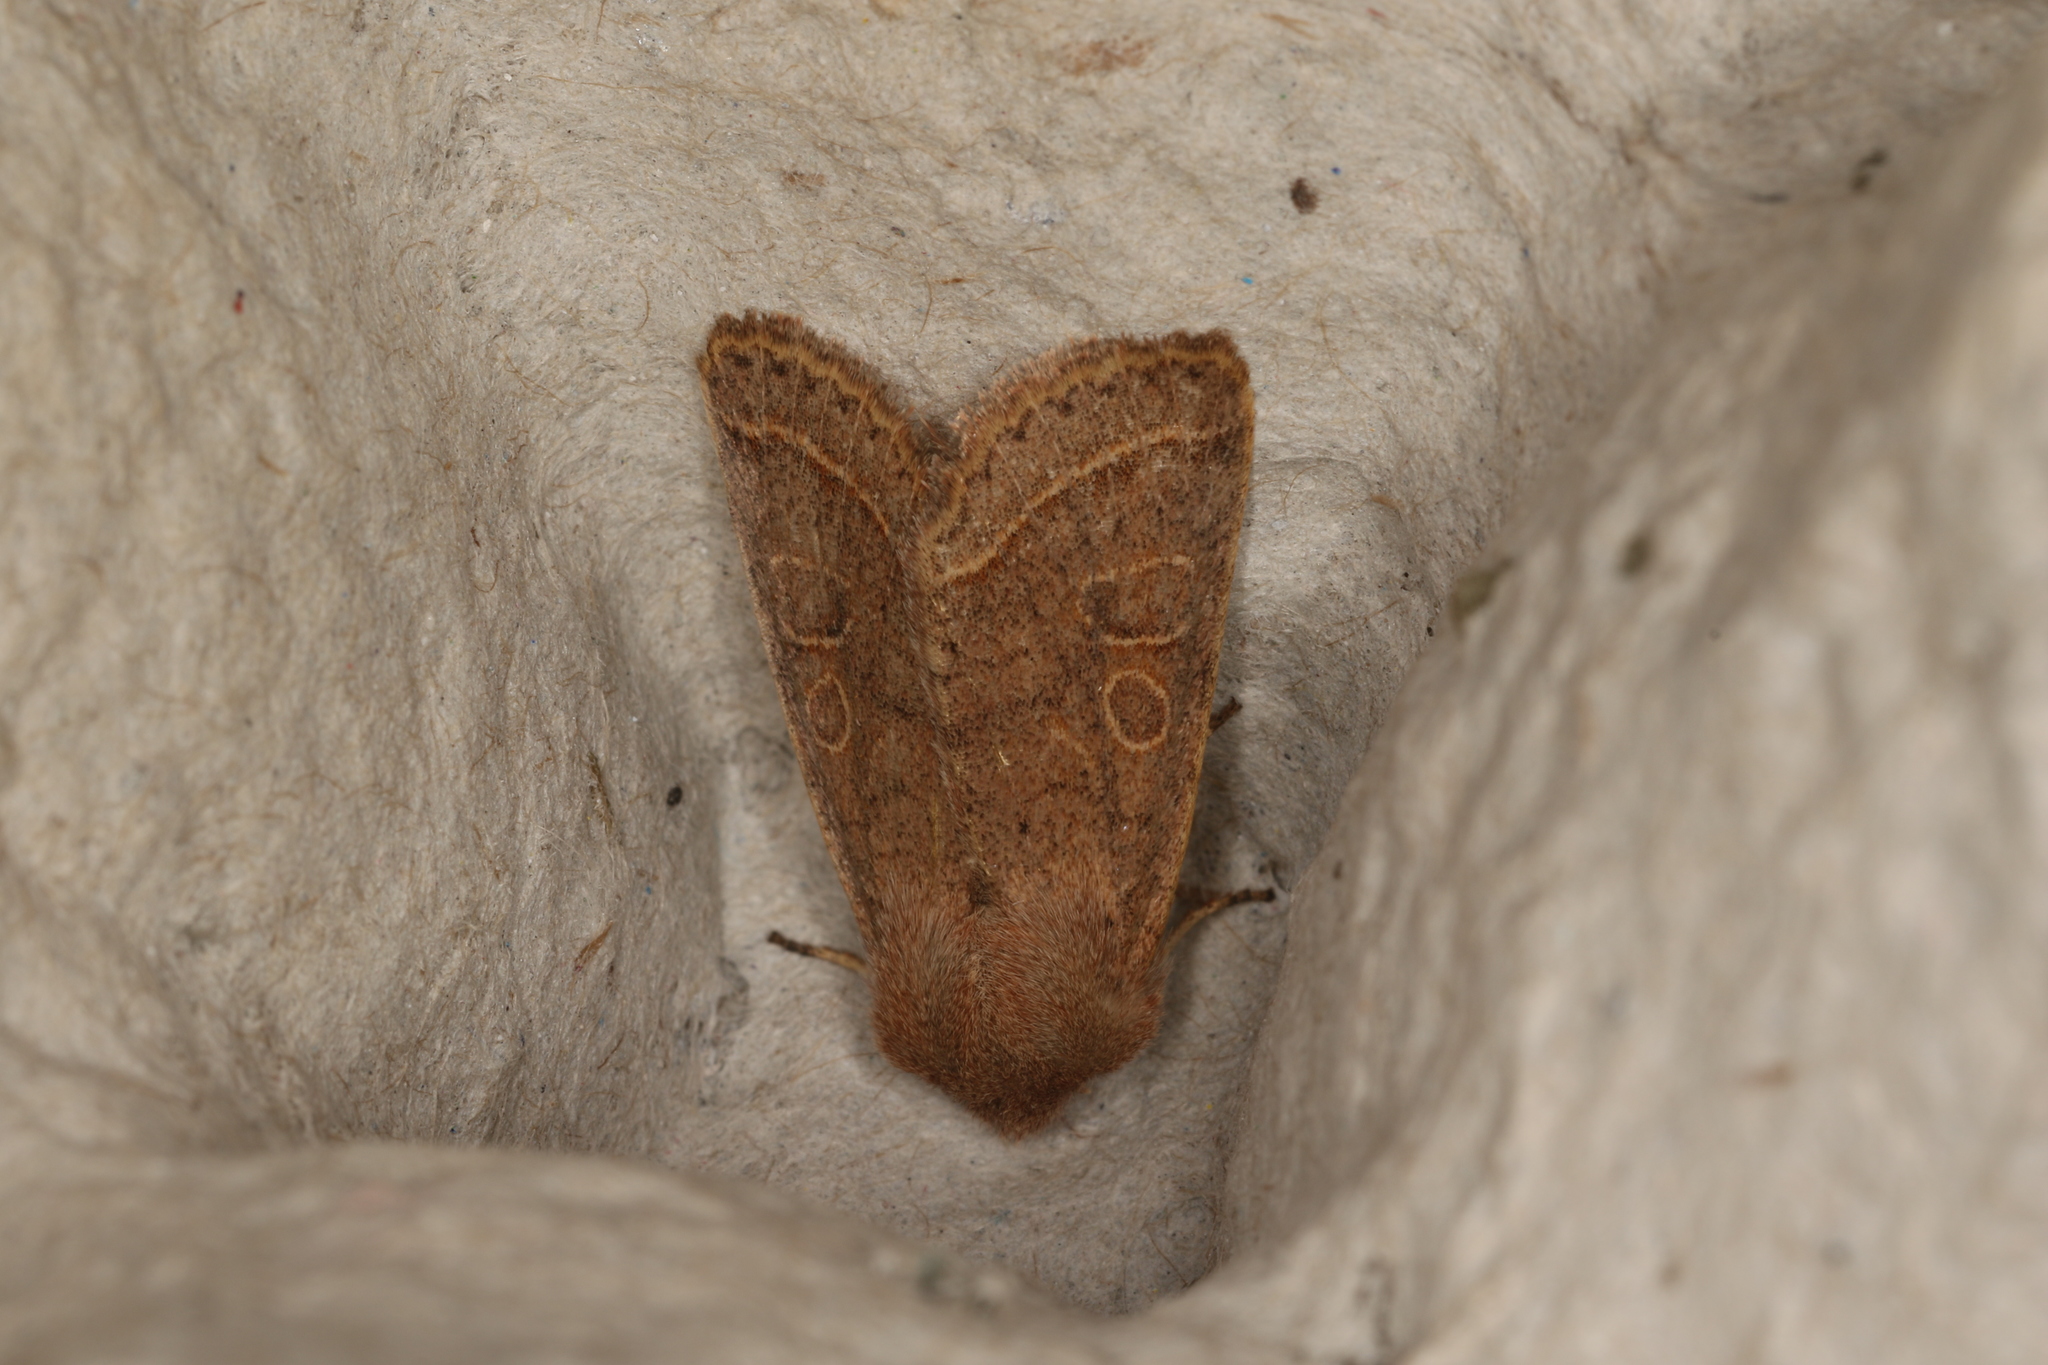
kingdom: Animalia
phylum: Arthropoda
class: Insecta
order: Lepidoptera
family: Noctuidae
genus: Orthosia
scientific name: Orthosia cerasi
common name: Common quaker
